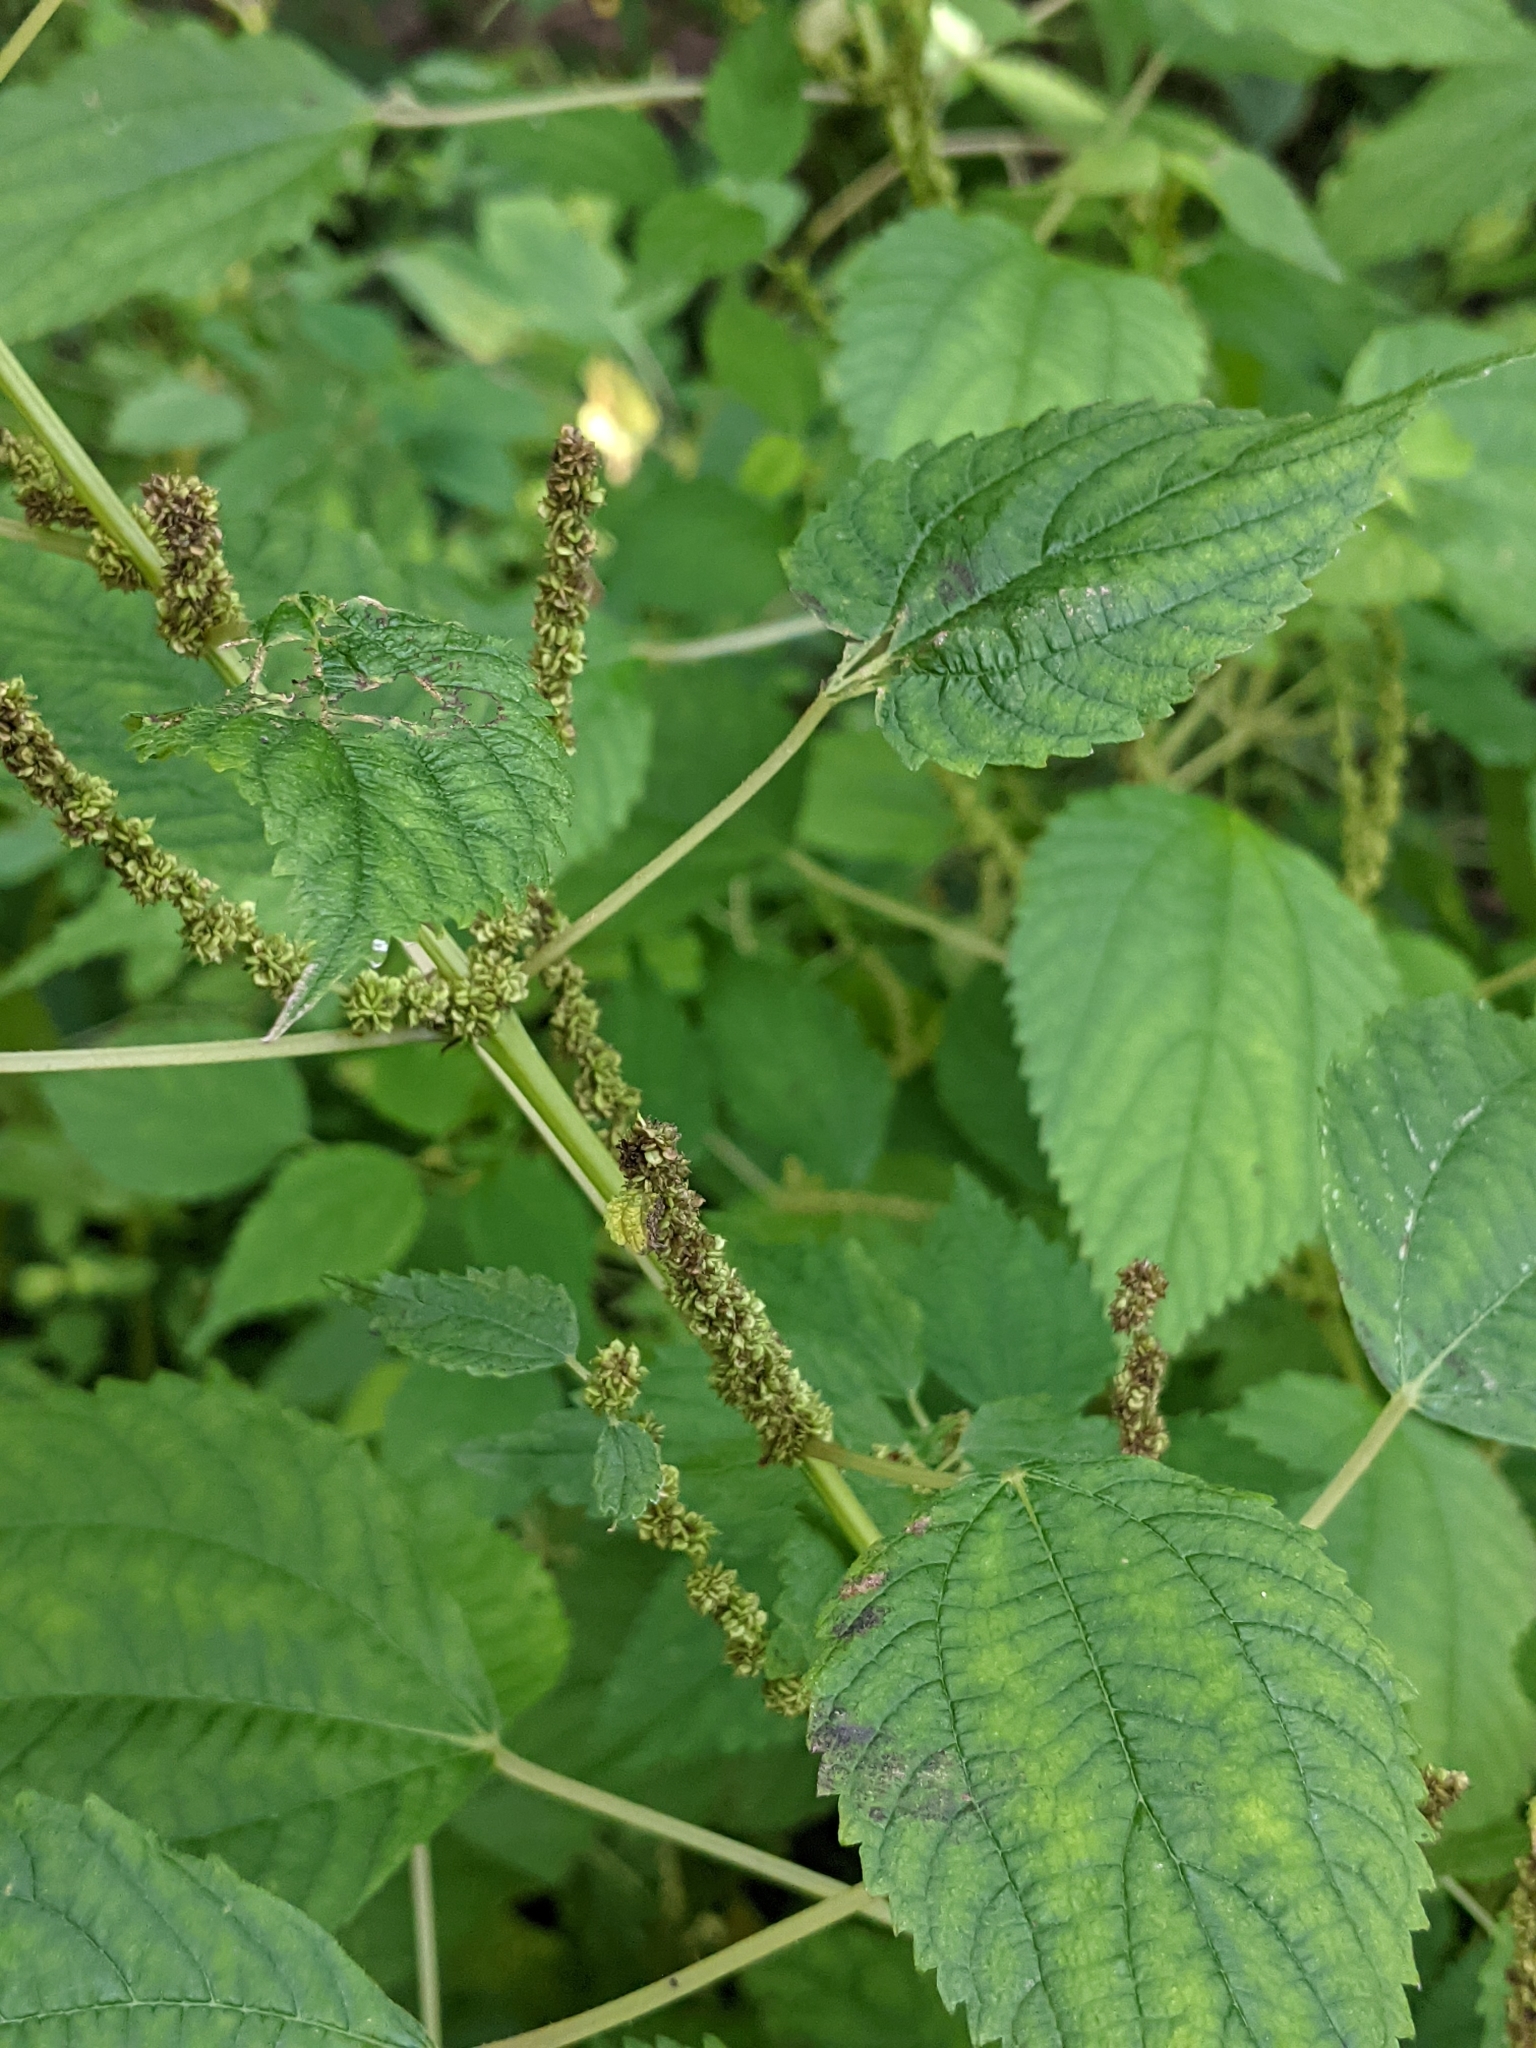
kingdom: Plantae
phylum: Tracheophyta
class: Magnoliopsida
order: Rosales
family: Urticaceae
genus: Boehmeria
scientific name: Boehmeria cylindrica
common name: Bog-hemp
